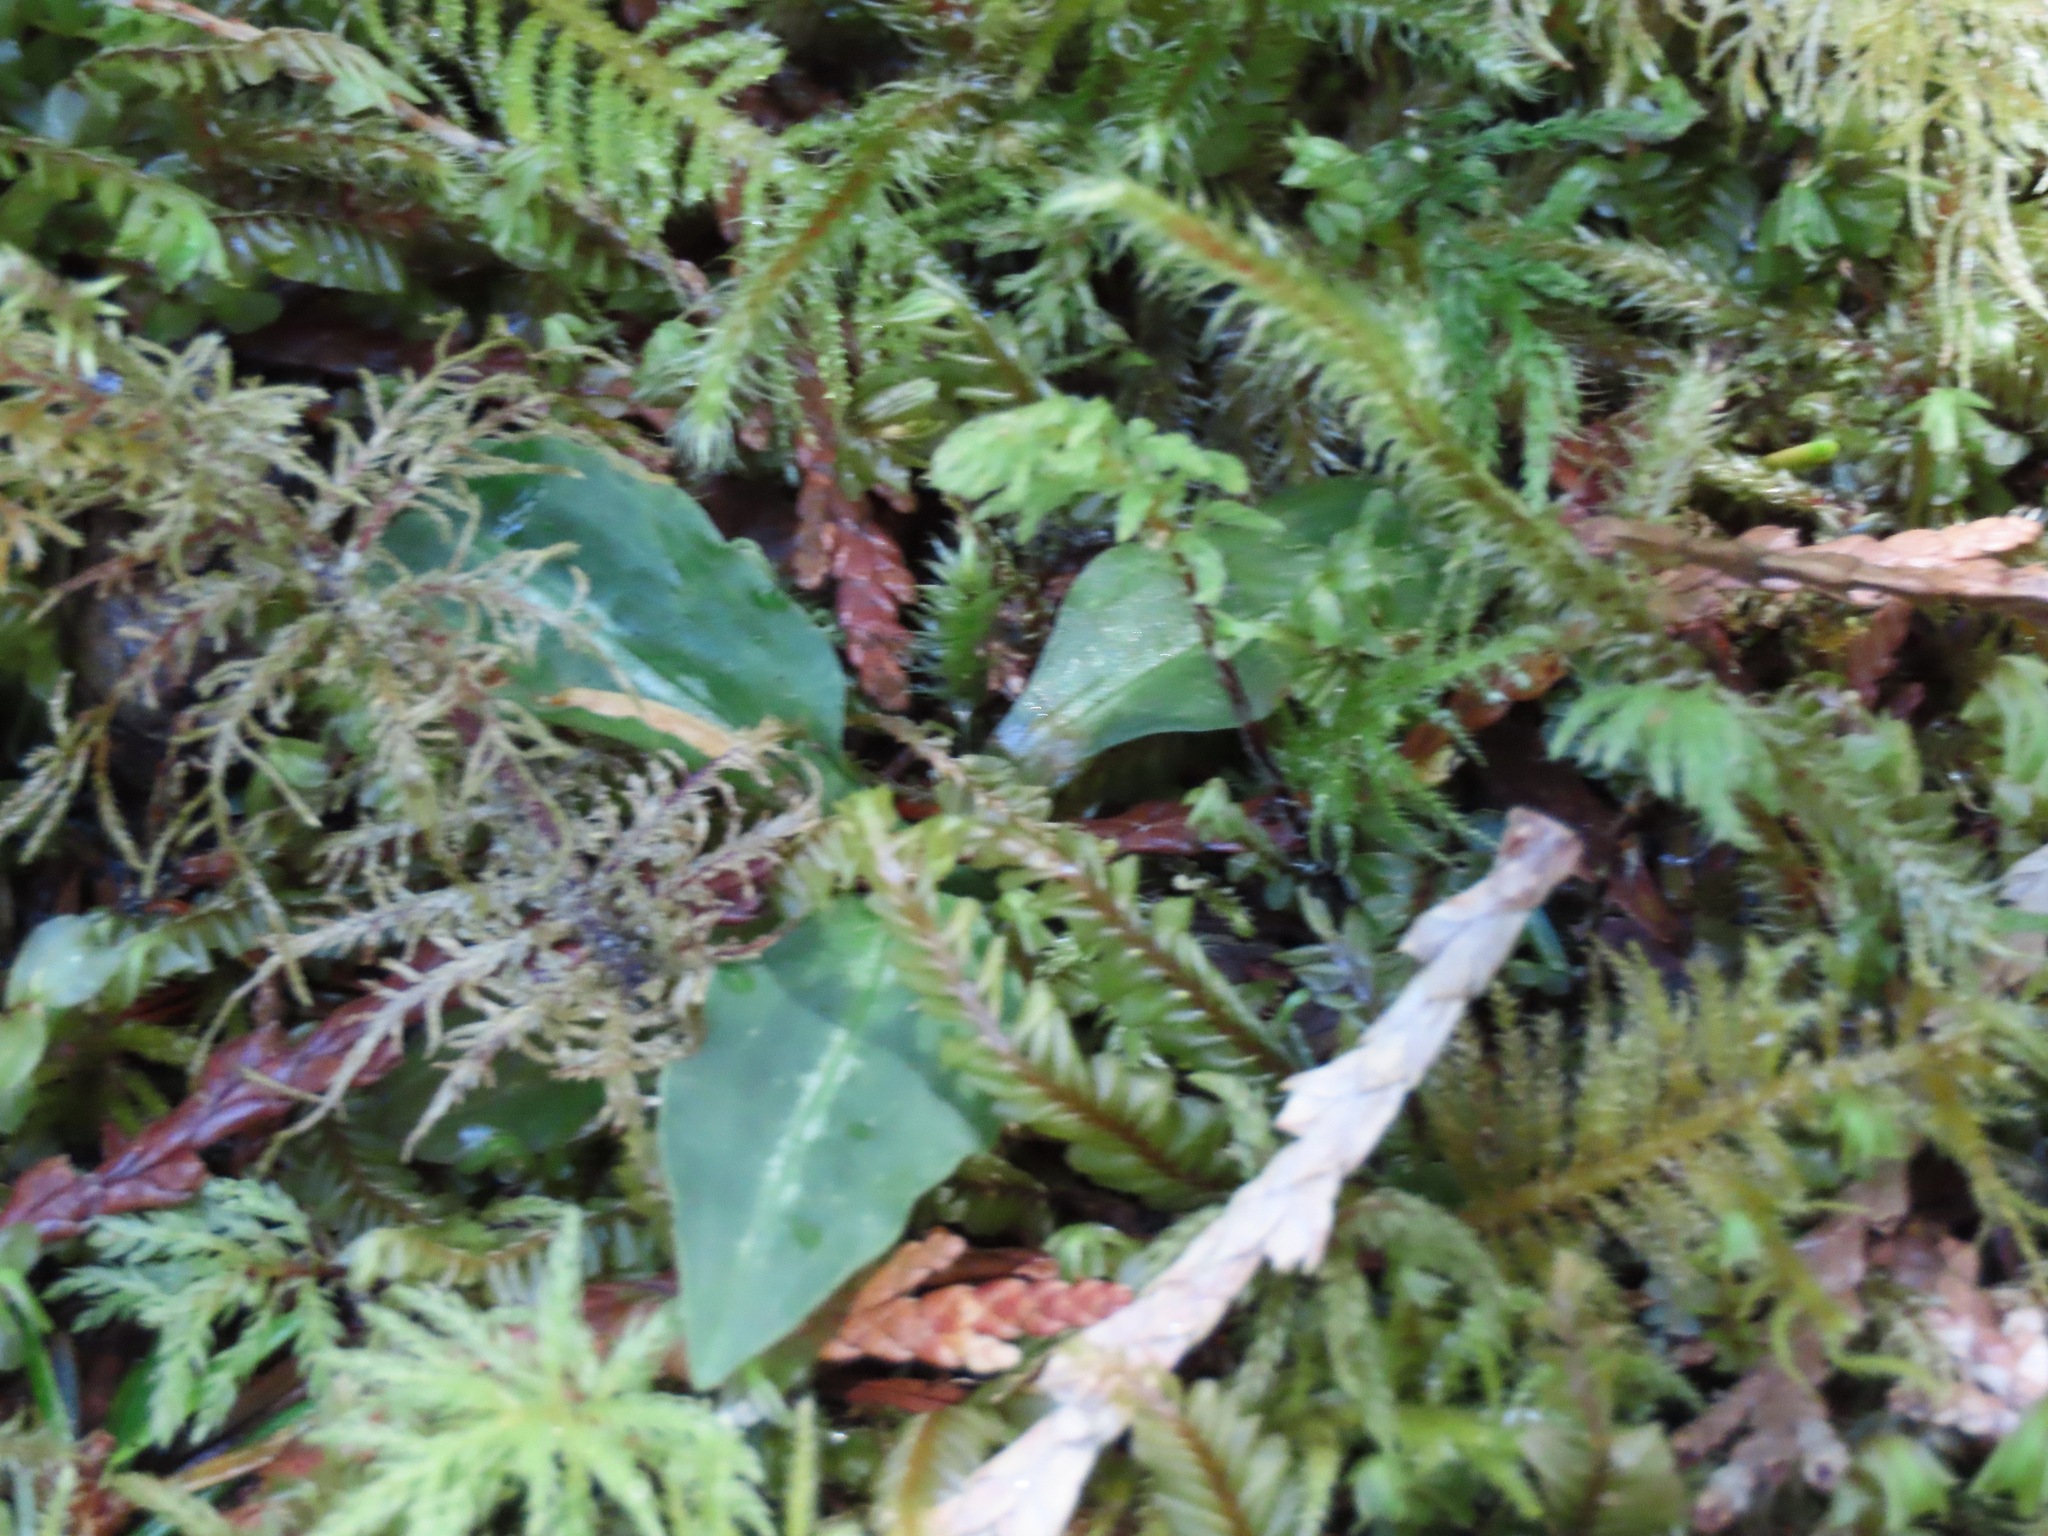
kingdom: Plantae
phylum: Tracheophyta
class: Liliopsida
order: Asparagales
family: Orchidaceae
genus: Goodyera
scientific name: Goodyera oblongifolia
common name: Giant rattlesnake-plantain
